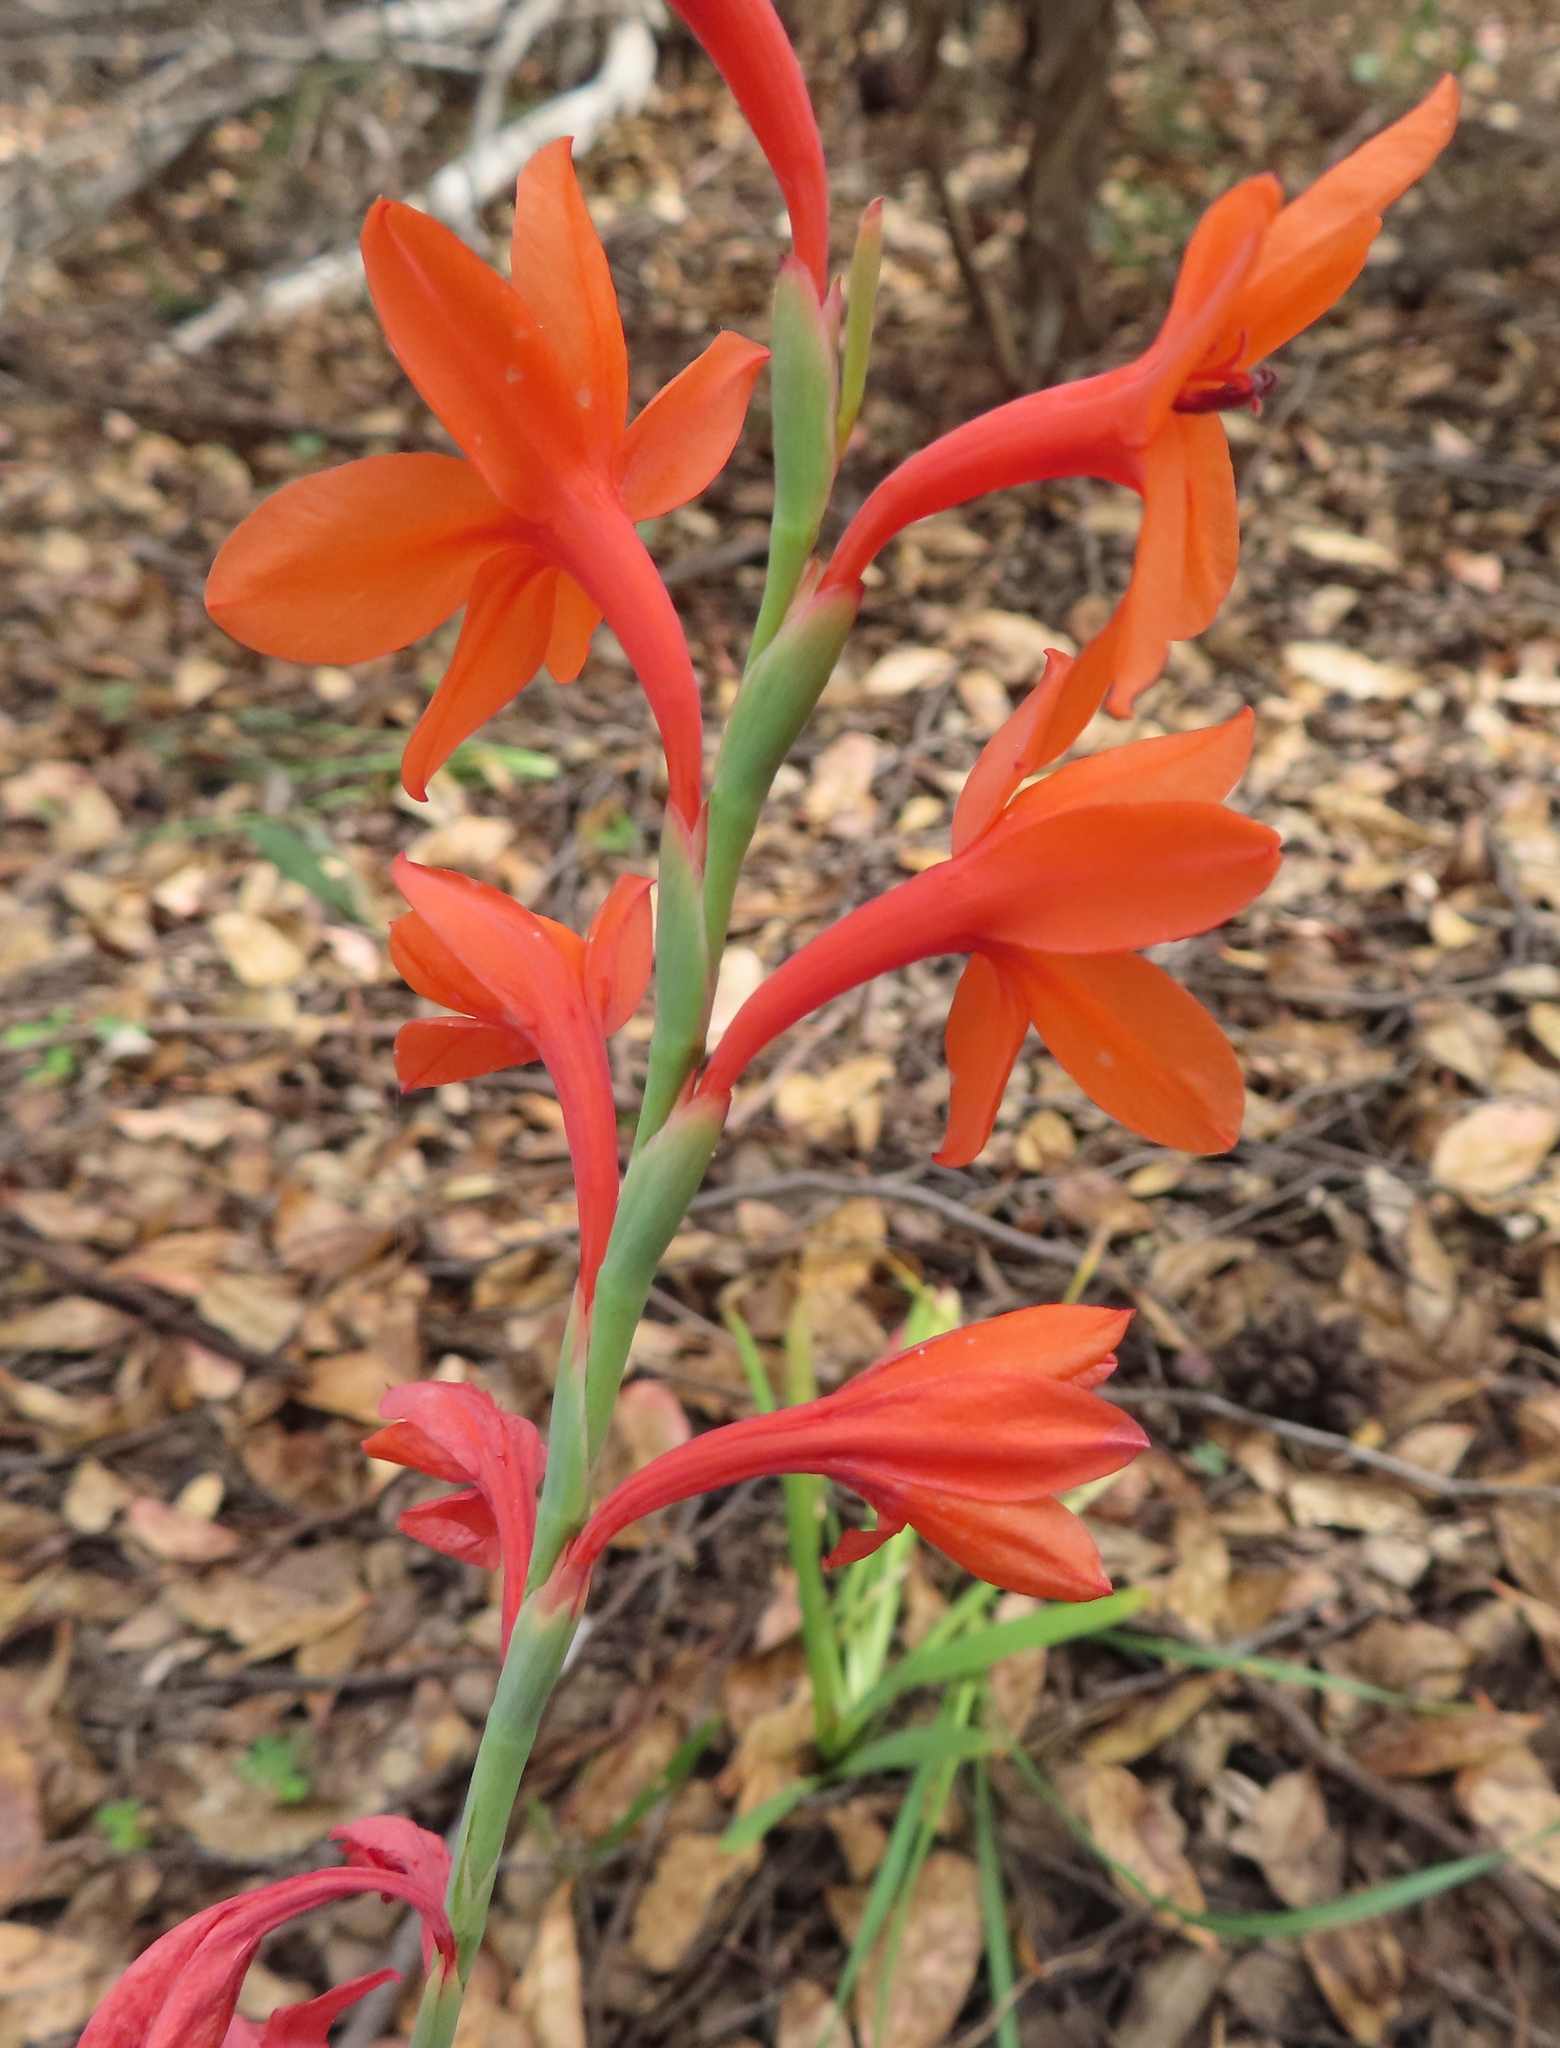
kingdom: Plantae
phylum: Tracheophyta
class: Liliopsida
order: Asparagales
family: Iridaceae
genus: Watsonia
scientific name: Watsonia stenosiphon
